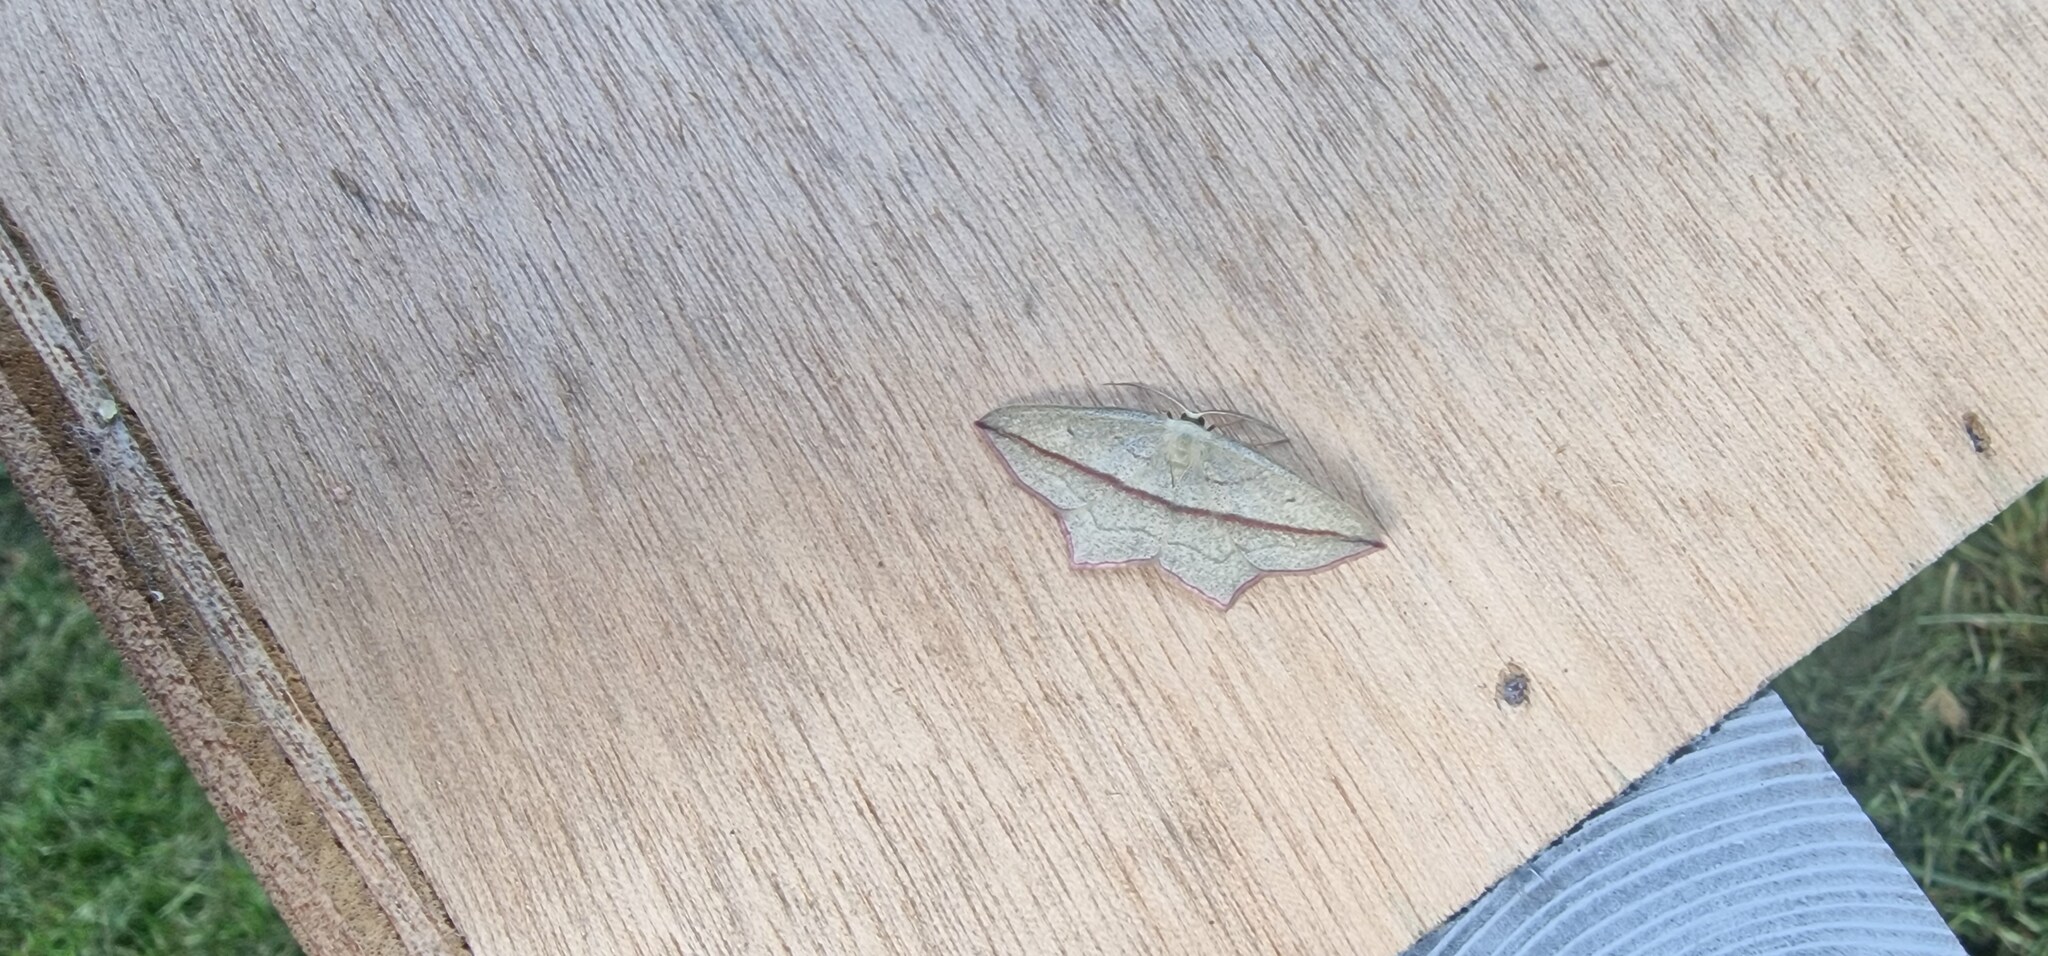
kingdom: Animalia
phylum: Arthropoda
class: Insecta
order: Lepidoptera
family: Geometridae
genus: Timandra
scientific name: Timandra comae
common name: Blood-vein
